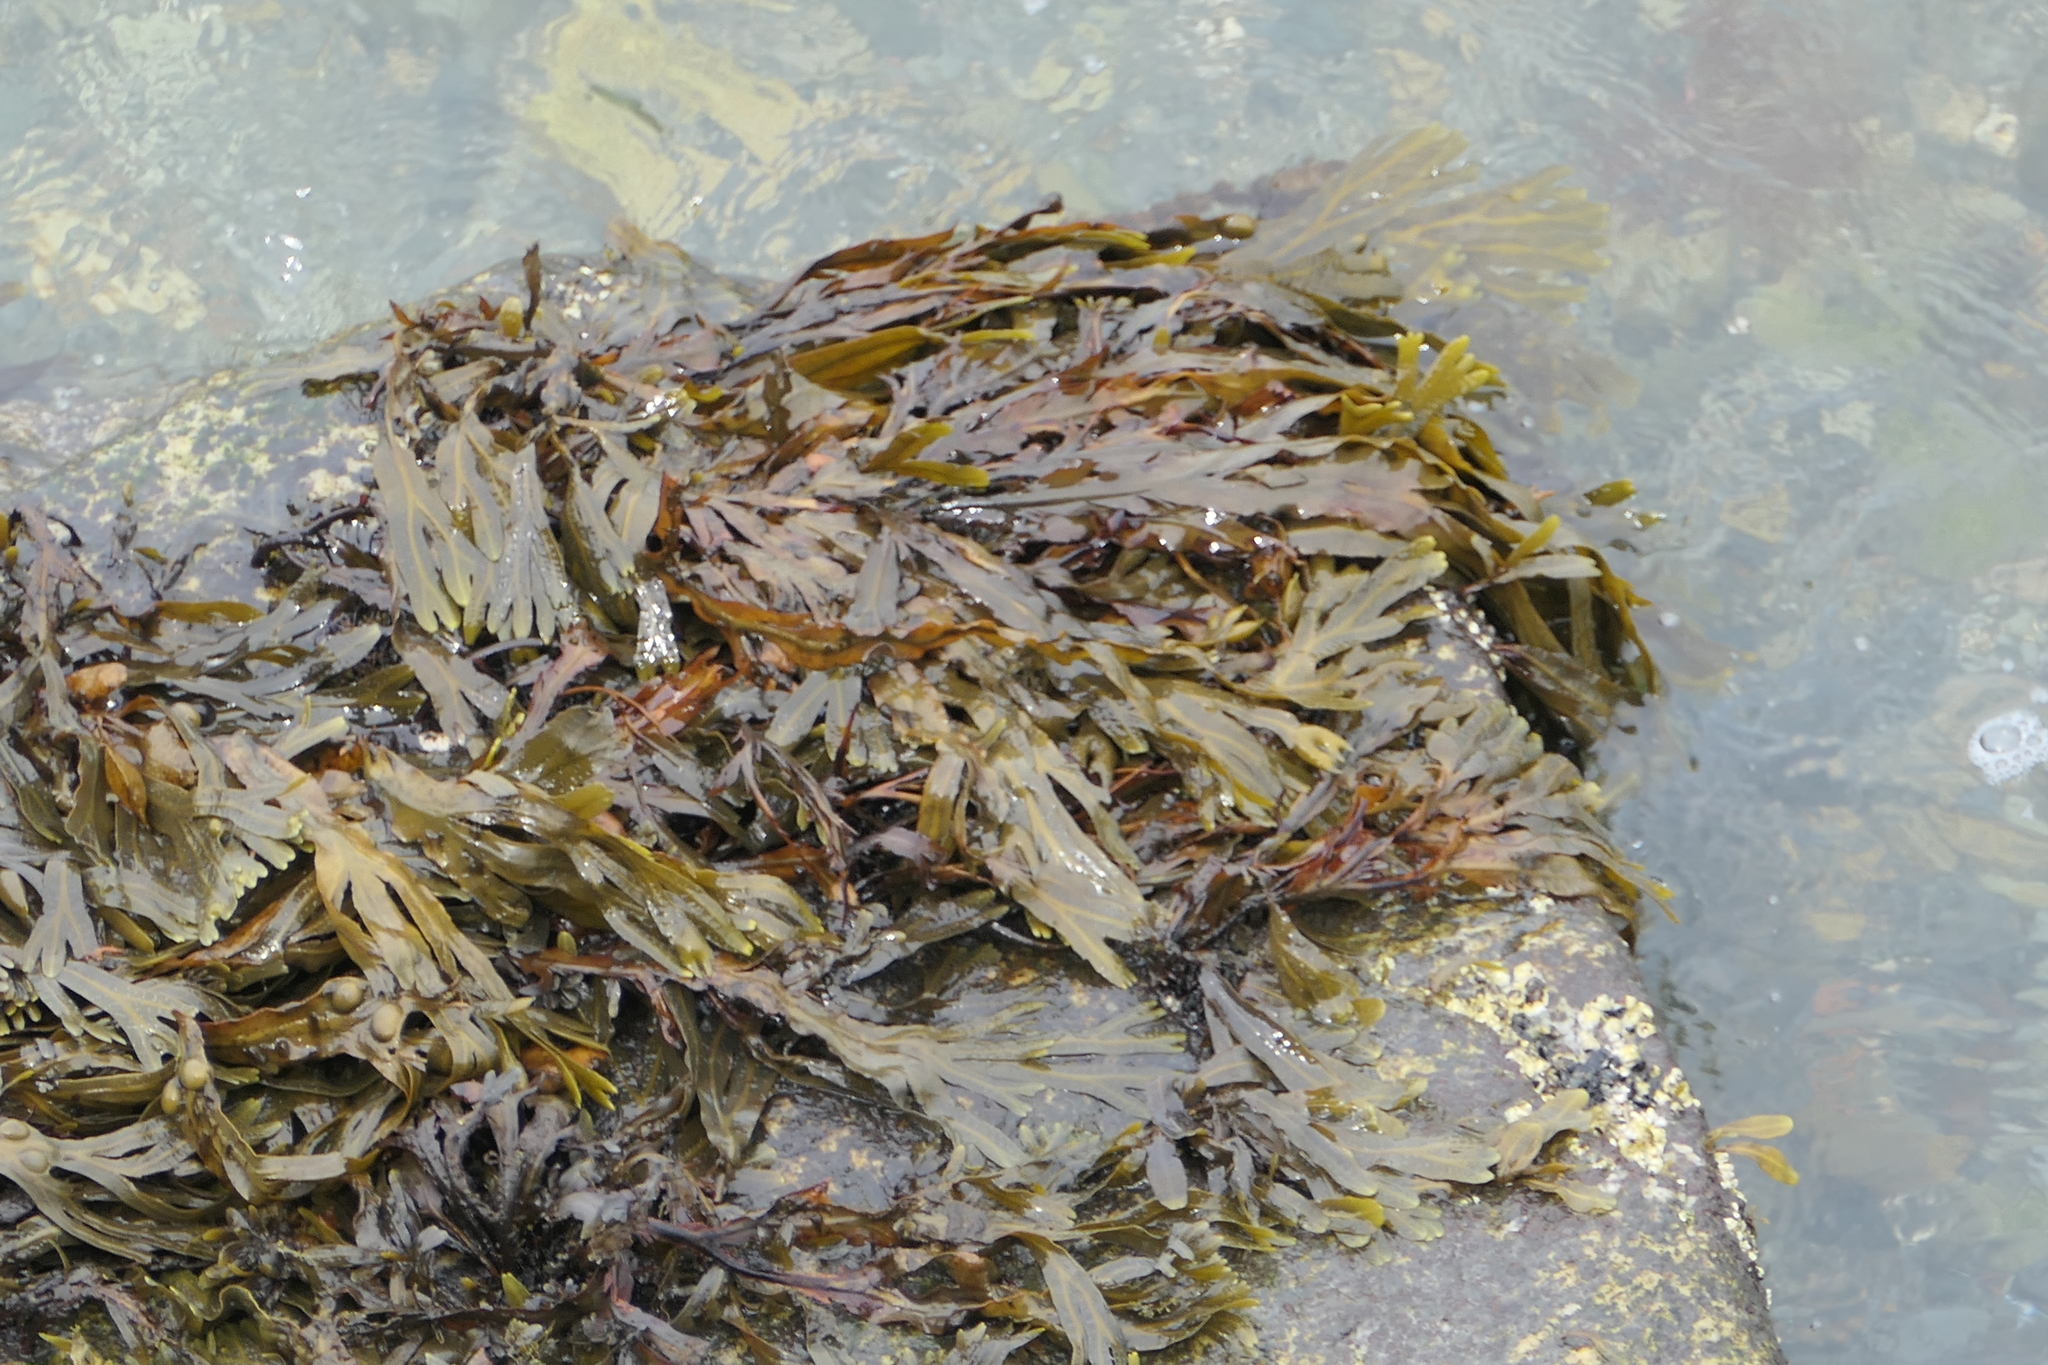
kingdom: Chromista
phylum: Ochrophyta
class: Phaeophyceae
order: Fucales
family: Fucaceae
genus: Fucus
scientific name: Fucus vesiculosus
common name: Bladder wrack
